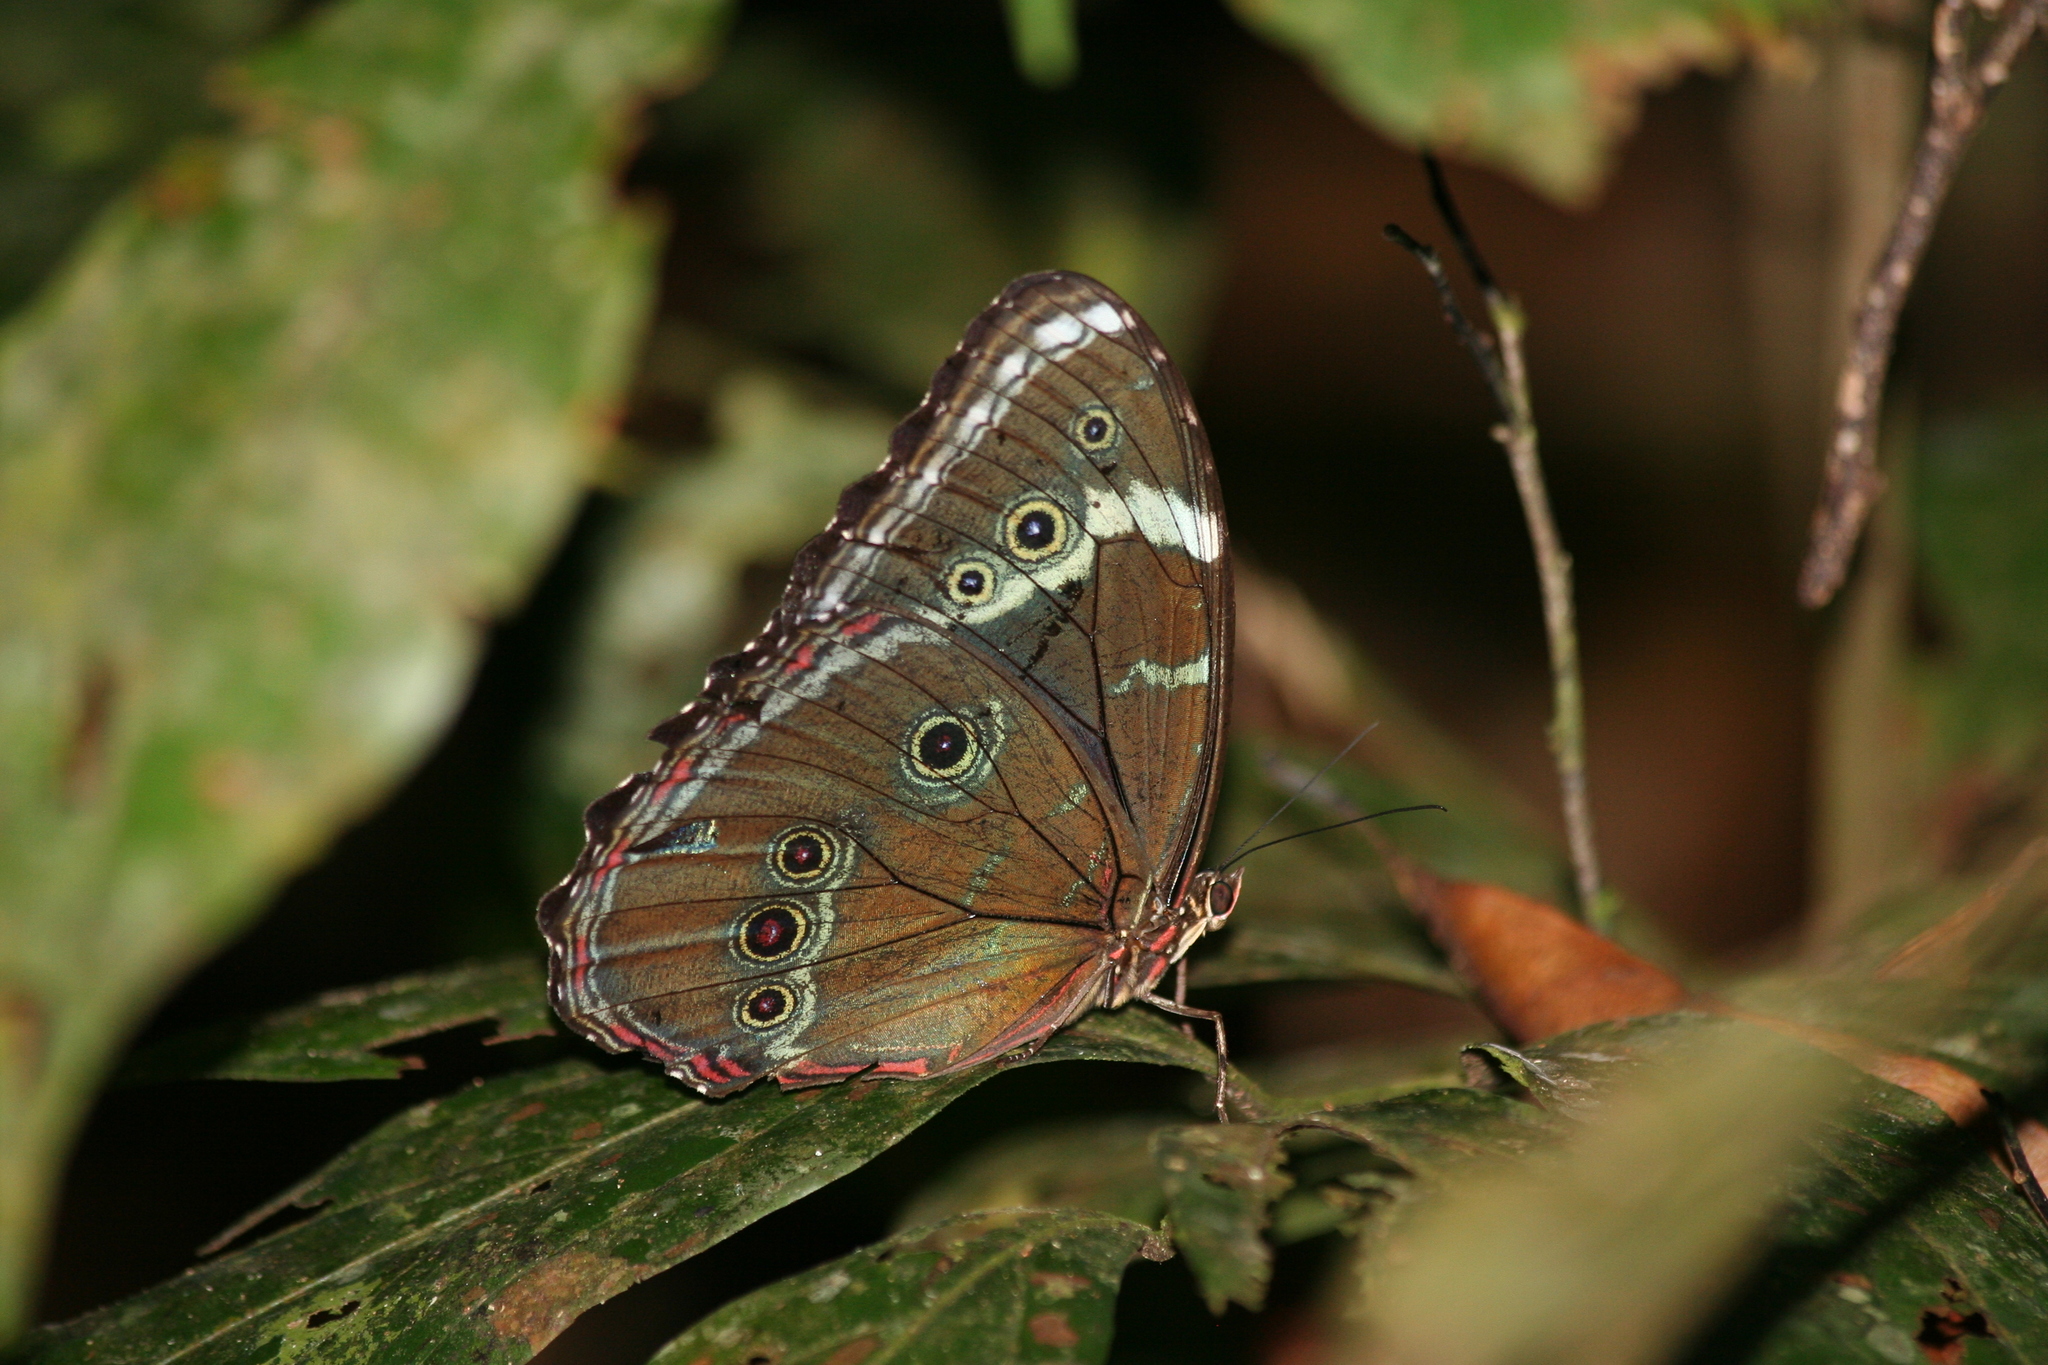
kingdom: Animalia
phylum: Arthropoda
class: Insecta
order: Lepidoptera
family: Nymphalidae
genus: Morpho
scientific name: Morpho helenor
